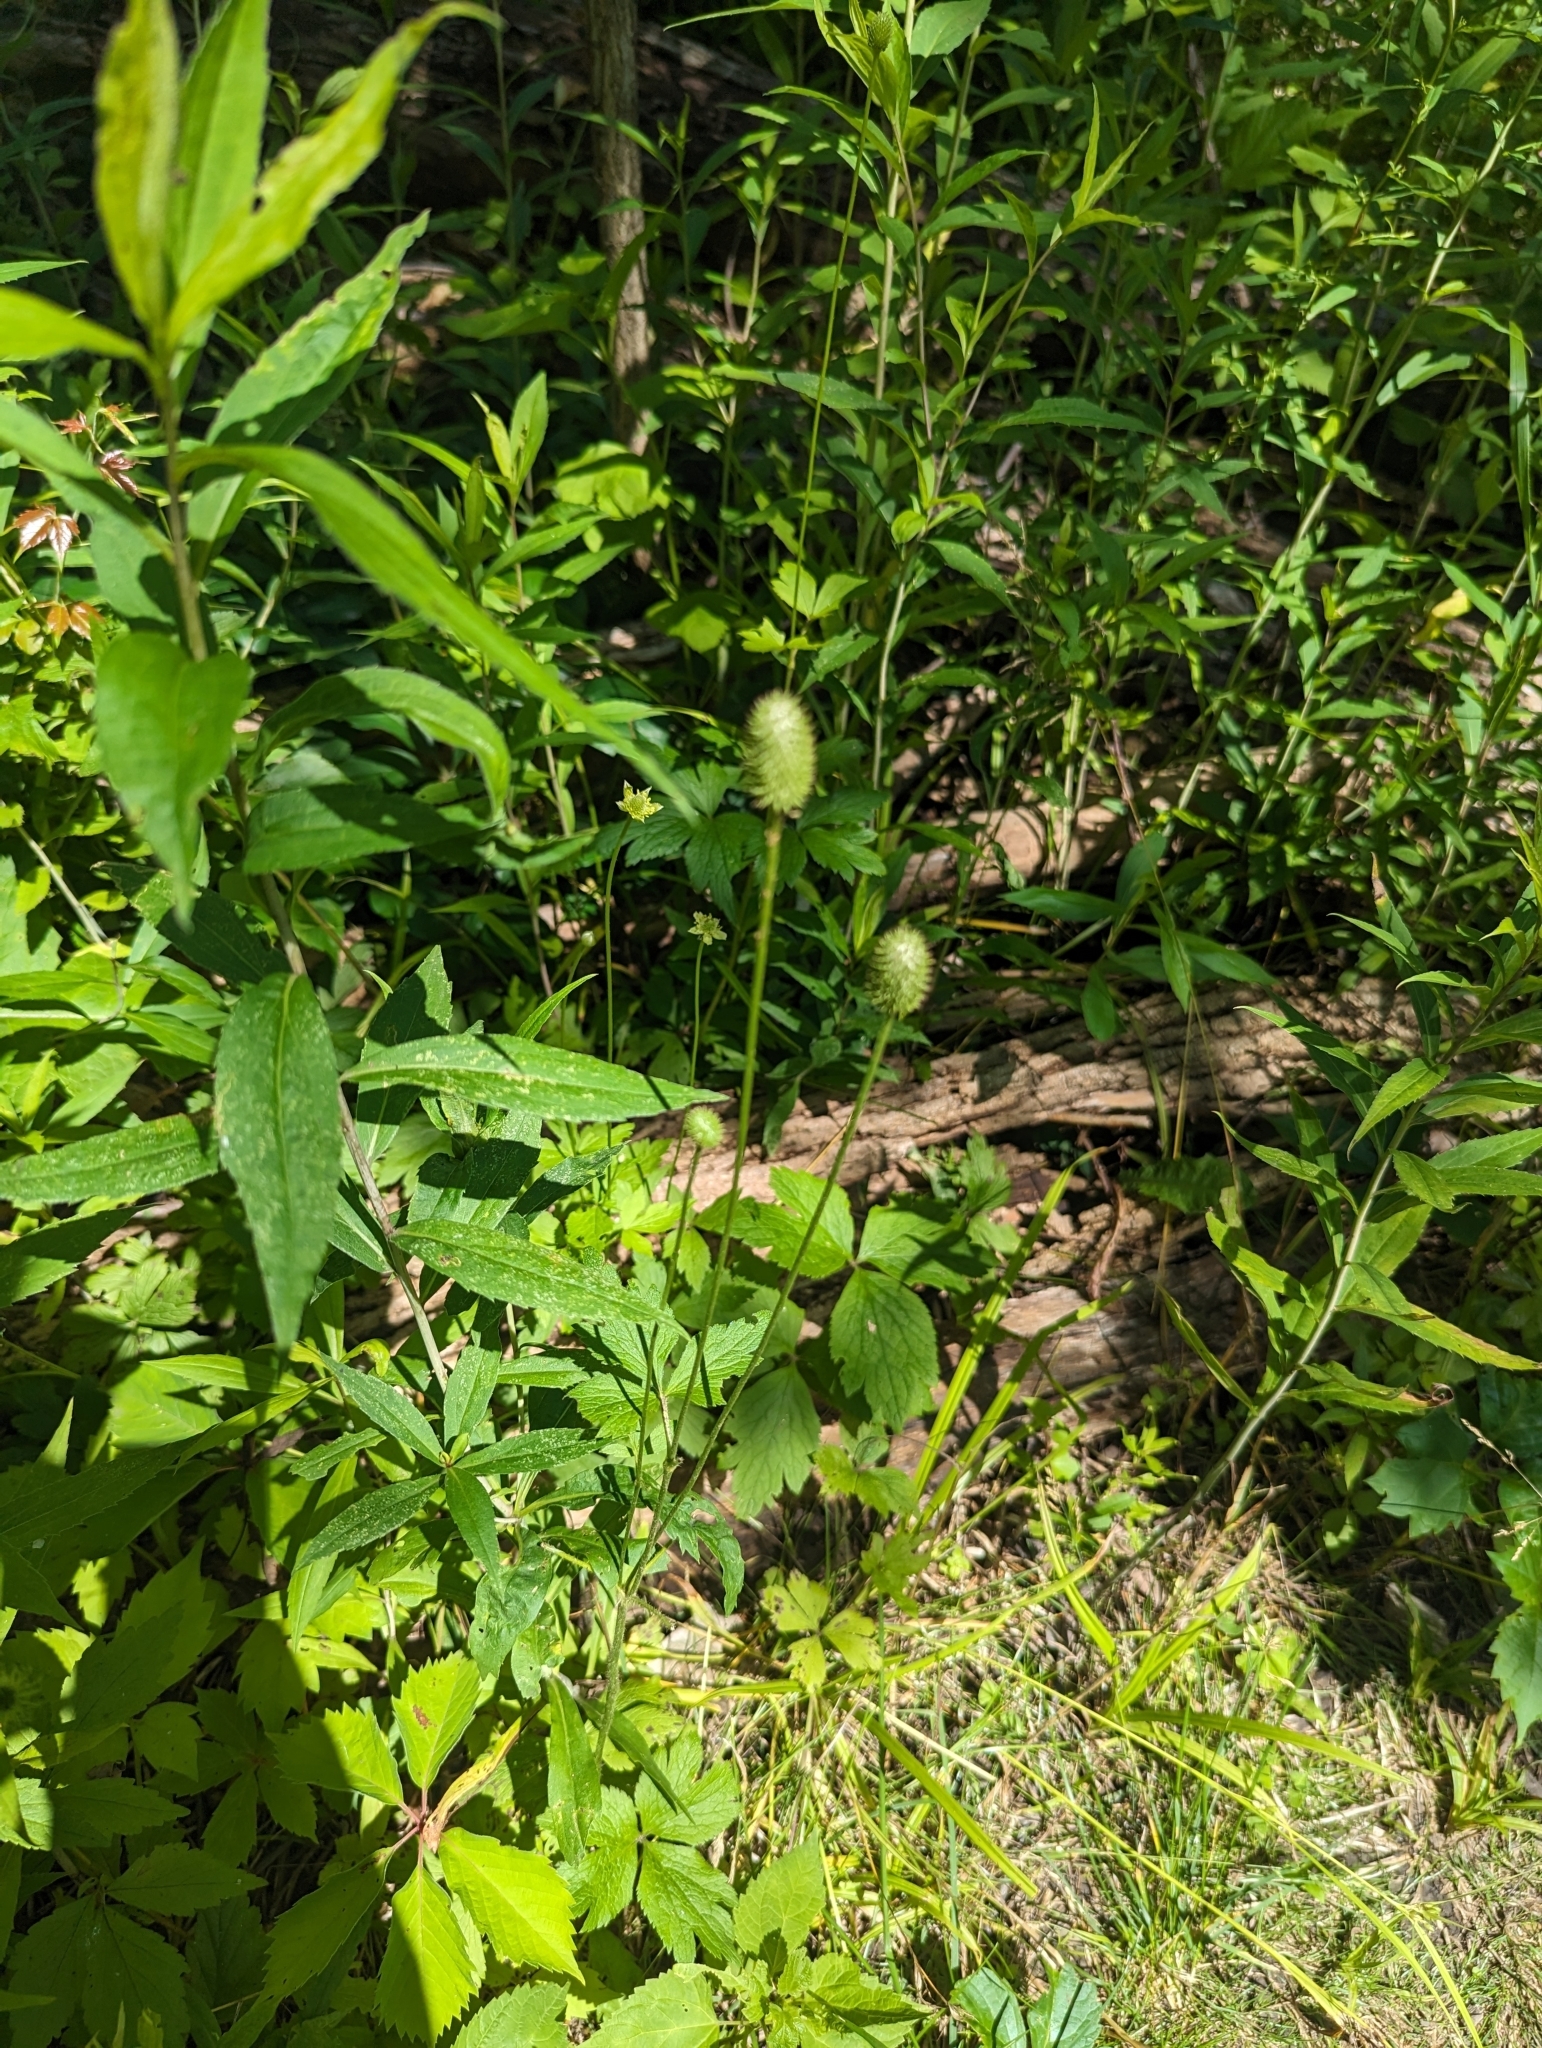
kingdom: Plantae
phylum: Tracheophyta
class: Magnoliopsida
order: Ranunculales
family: Ranunculaceae
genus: Anemone
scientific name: Anemone virginiana
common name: Tall anemone
